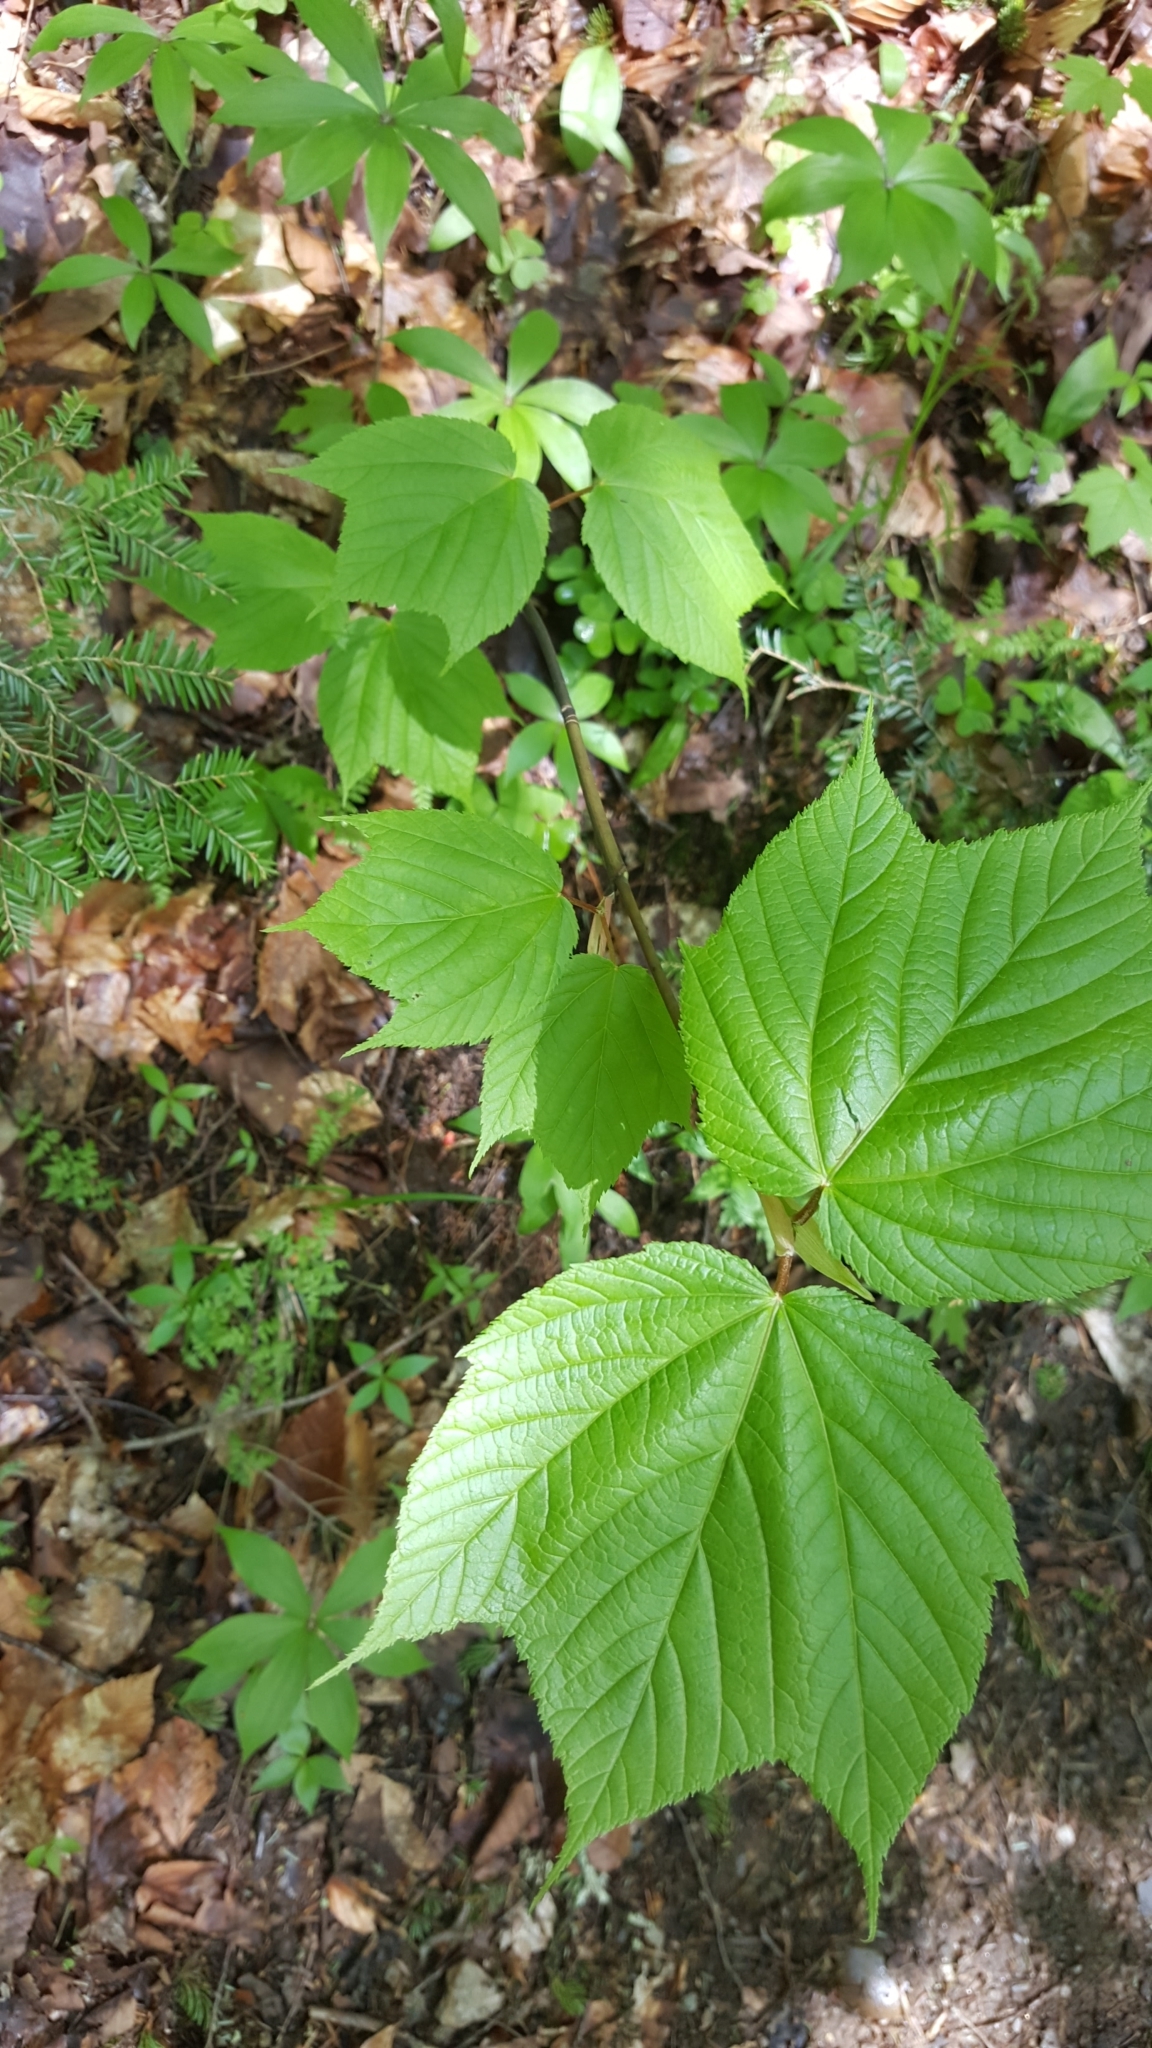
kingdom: Plantae
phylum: Tracheophyta
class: Magnoliopsida
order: Sapindales
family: Sapindaceae
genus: Acer
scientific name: Acer pensylvanicum
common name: Moosewood
